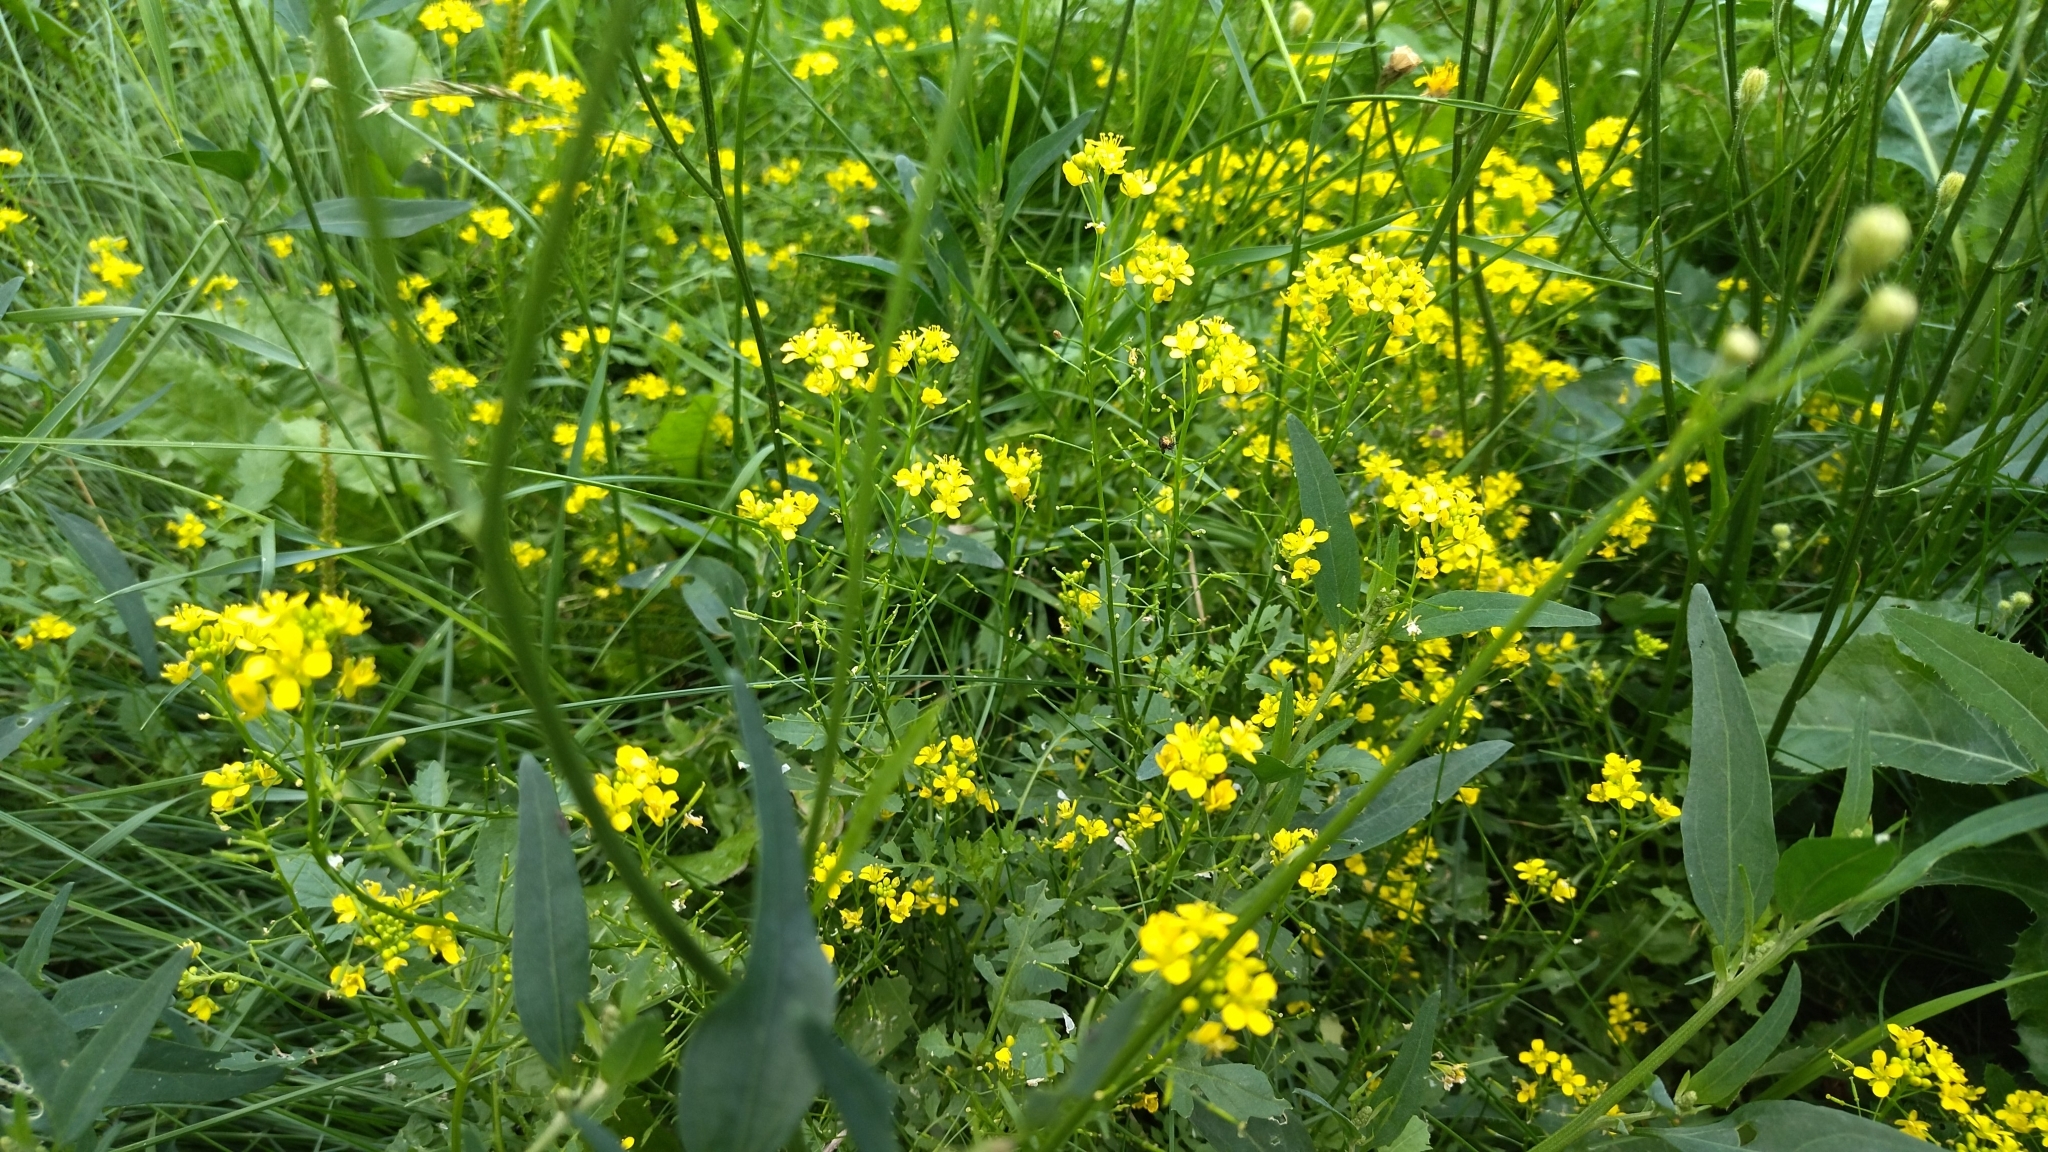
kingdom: Plantae
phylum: Tracheophyta
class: Magnoliopsida
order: Brassicales
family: Brassicaceae
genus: Rorippa
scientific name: Rorippa sylvestris
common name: Creeping yellowcress
